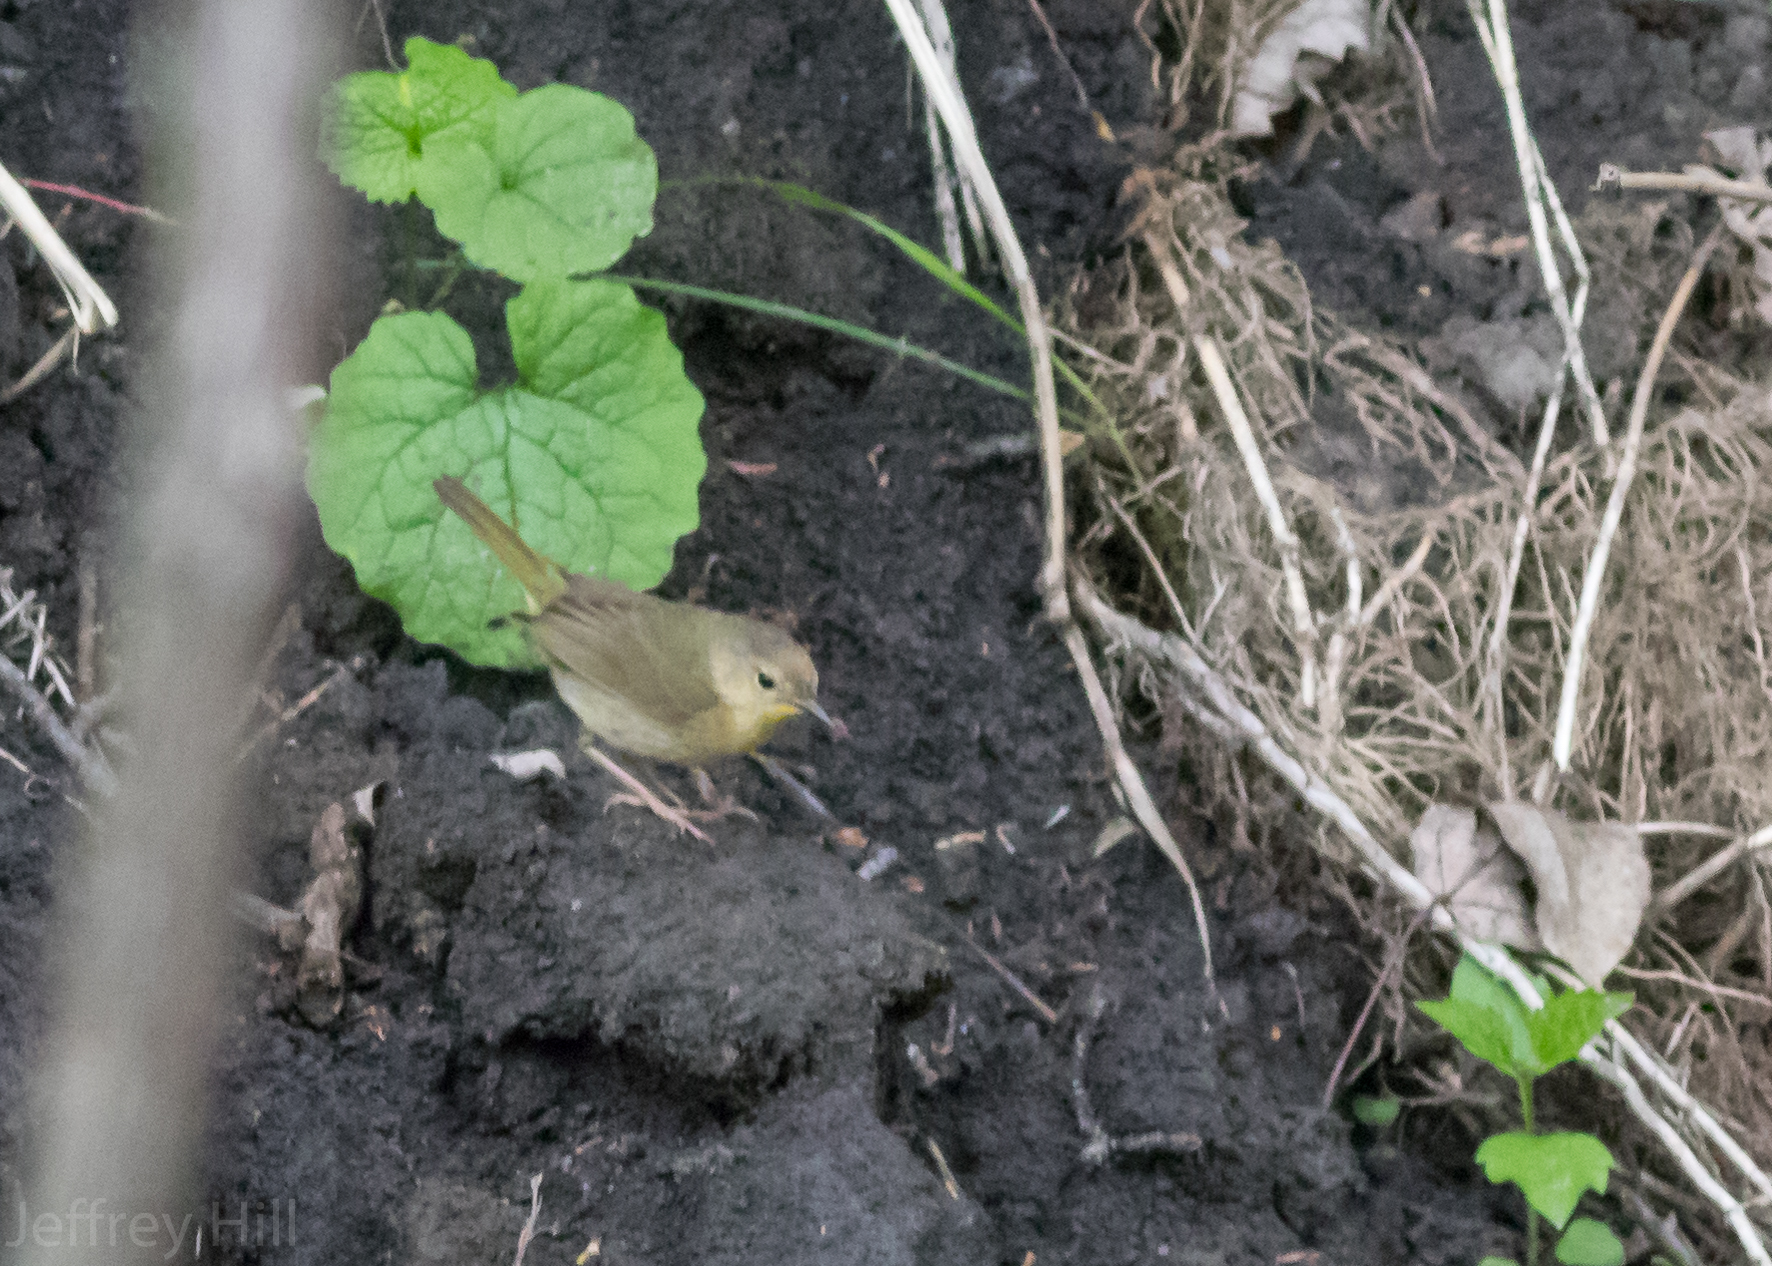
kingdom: Animalia
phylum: Chordata
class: Aves
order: Passeriformes
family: Parulidae
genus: Geothlypis
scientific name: Geothlypis trichas
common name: Common yellowthroat
